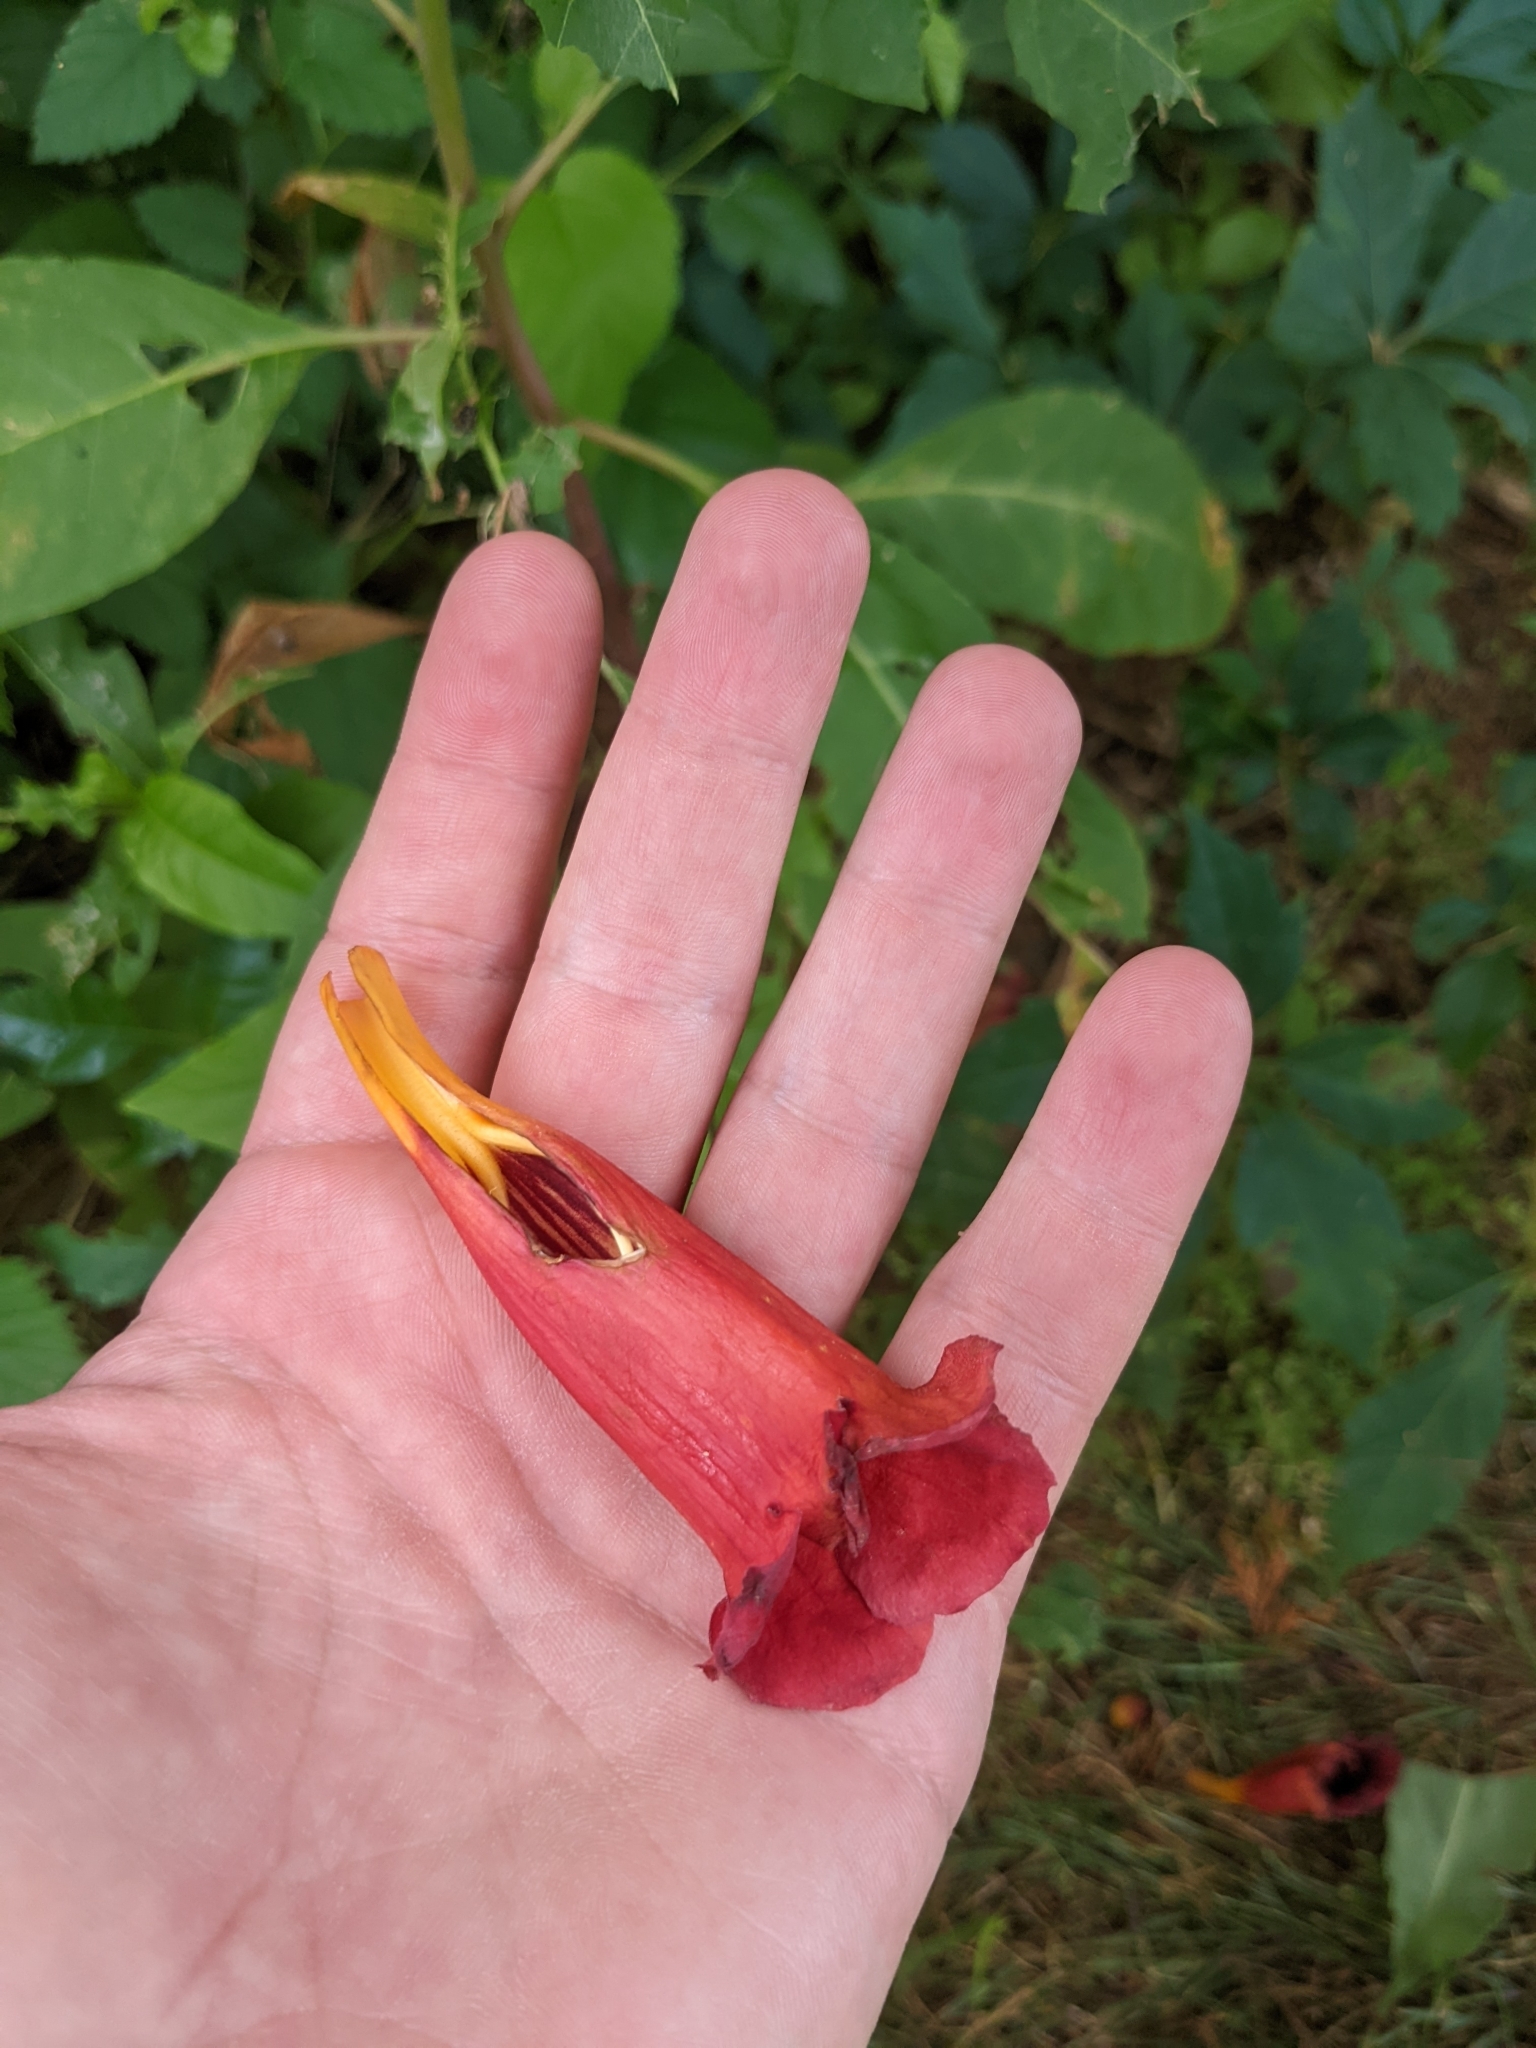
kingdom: Plantae
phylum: Tracheophyta
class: Magnoliopsida
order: Lamiales
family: Bignoniaceae
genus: Campsis
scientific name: Campsis radicans
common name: Trumpet-creeper
